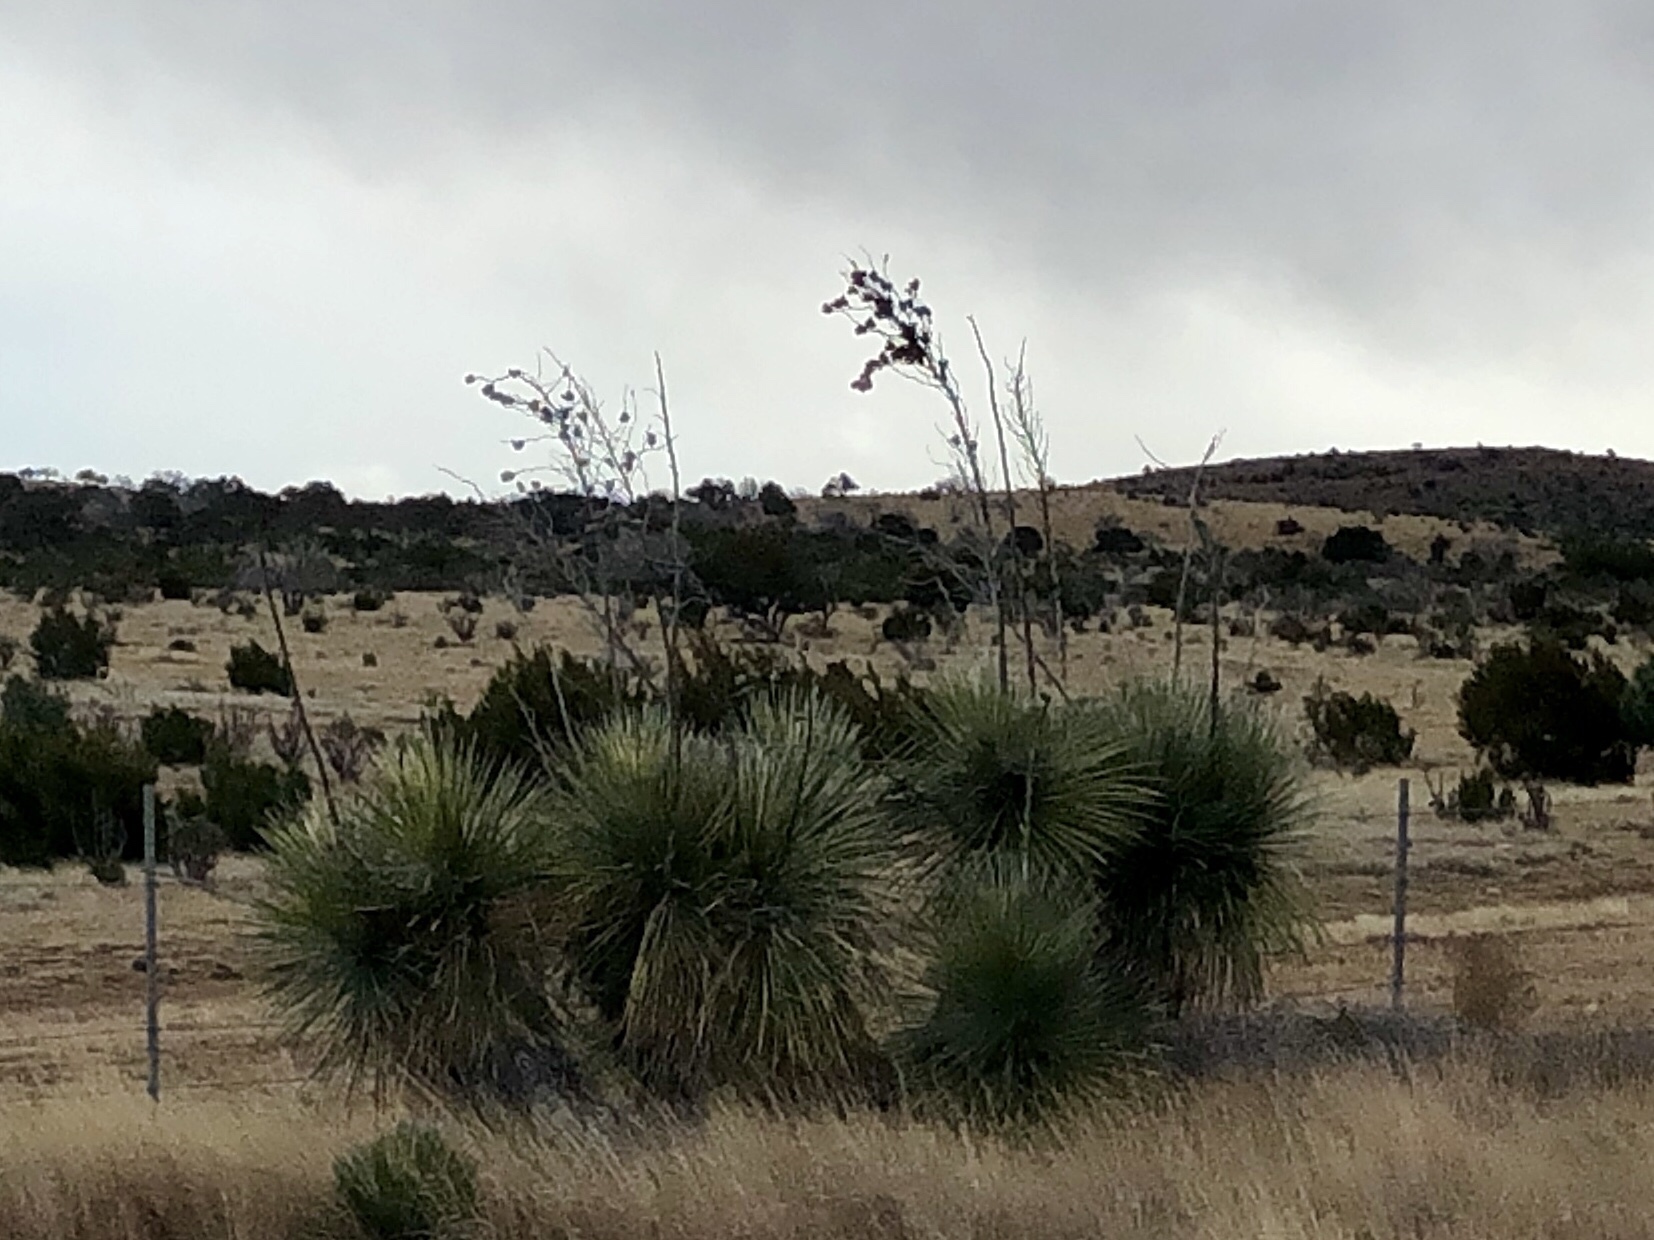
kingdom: Plantae
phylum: Tracheophyta
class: Liliopsida
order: Asparagales
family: Asparagaceae
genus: Yucca
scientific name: Yucca elata
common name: Palmella
